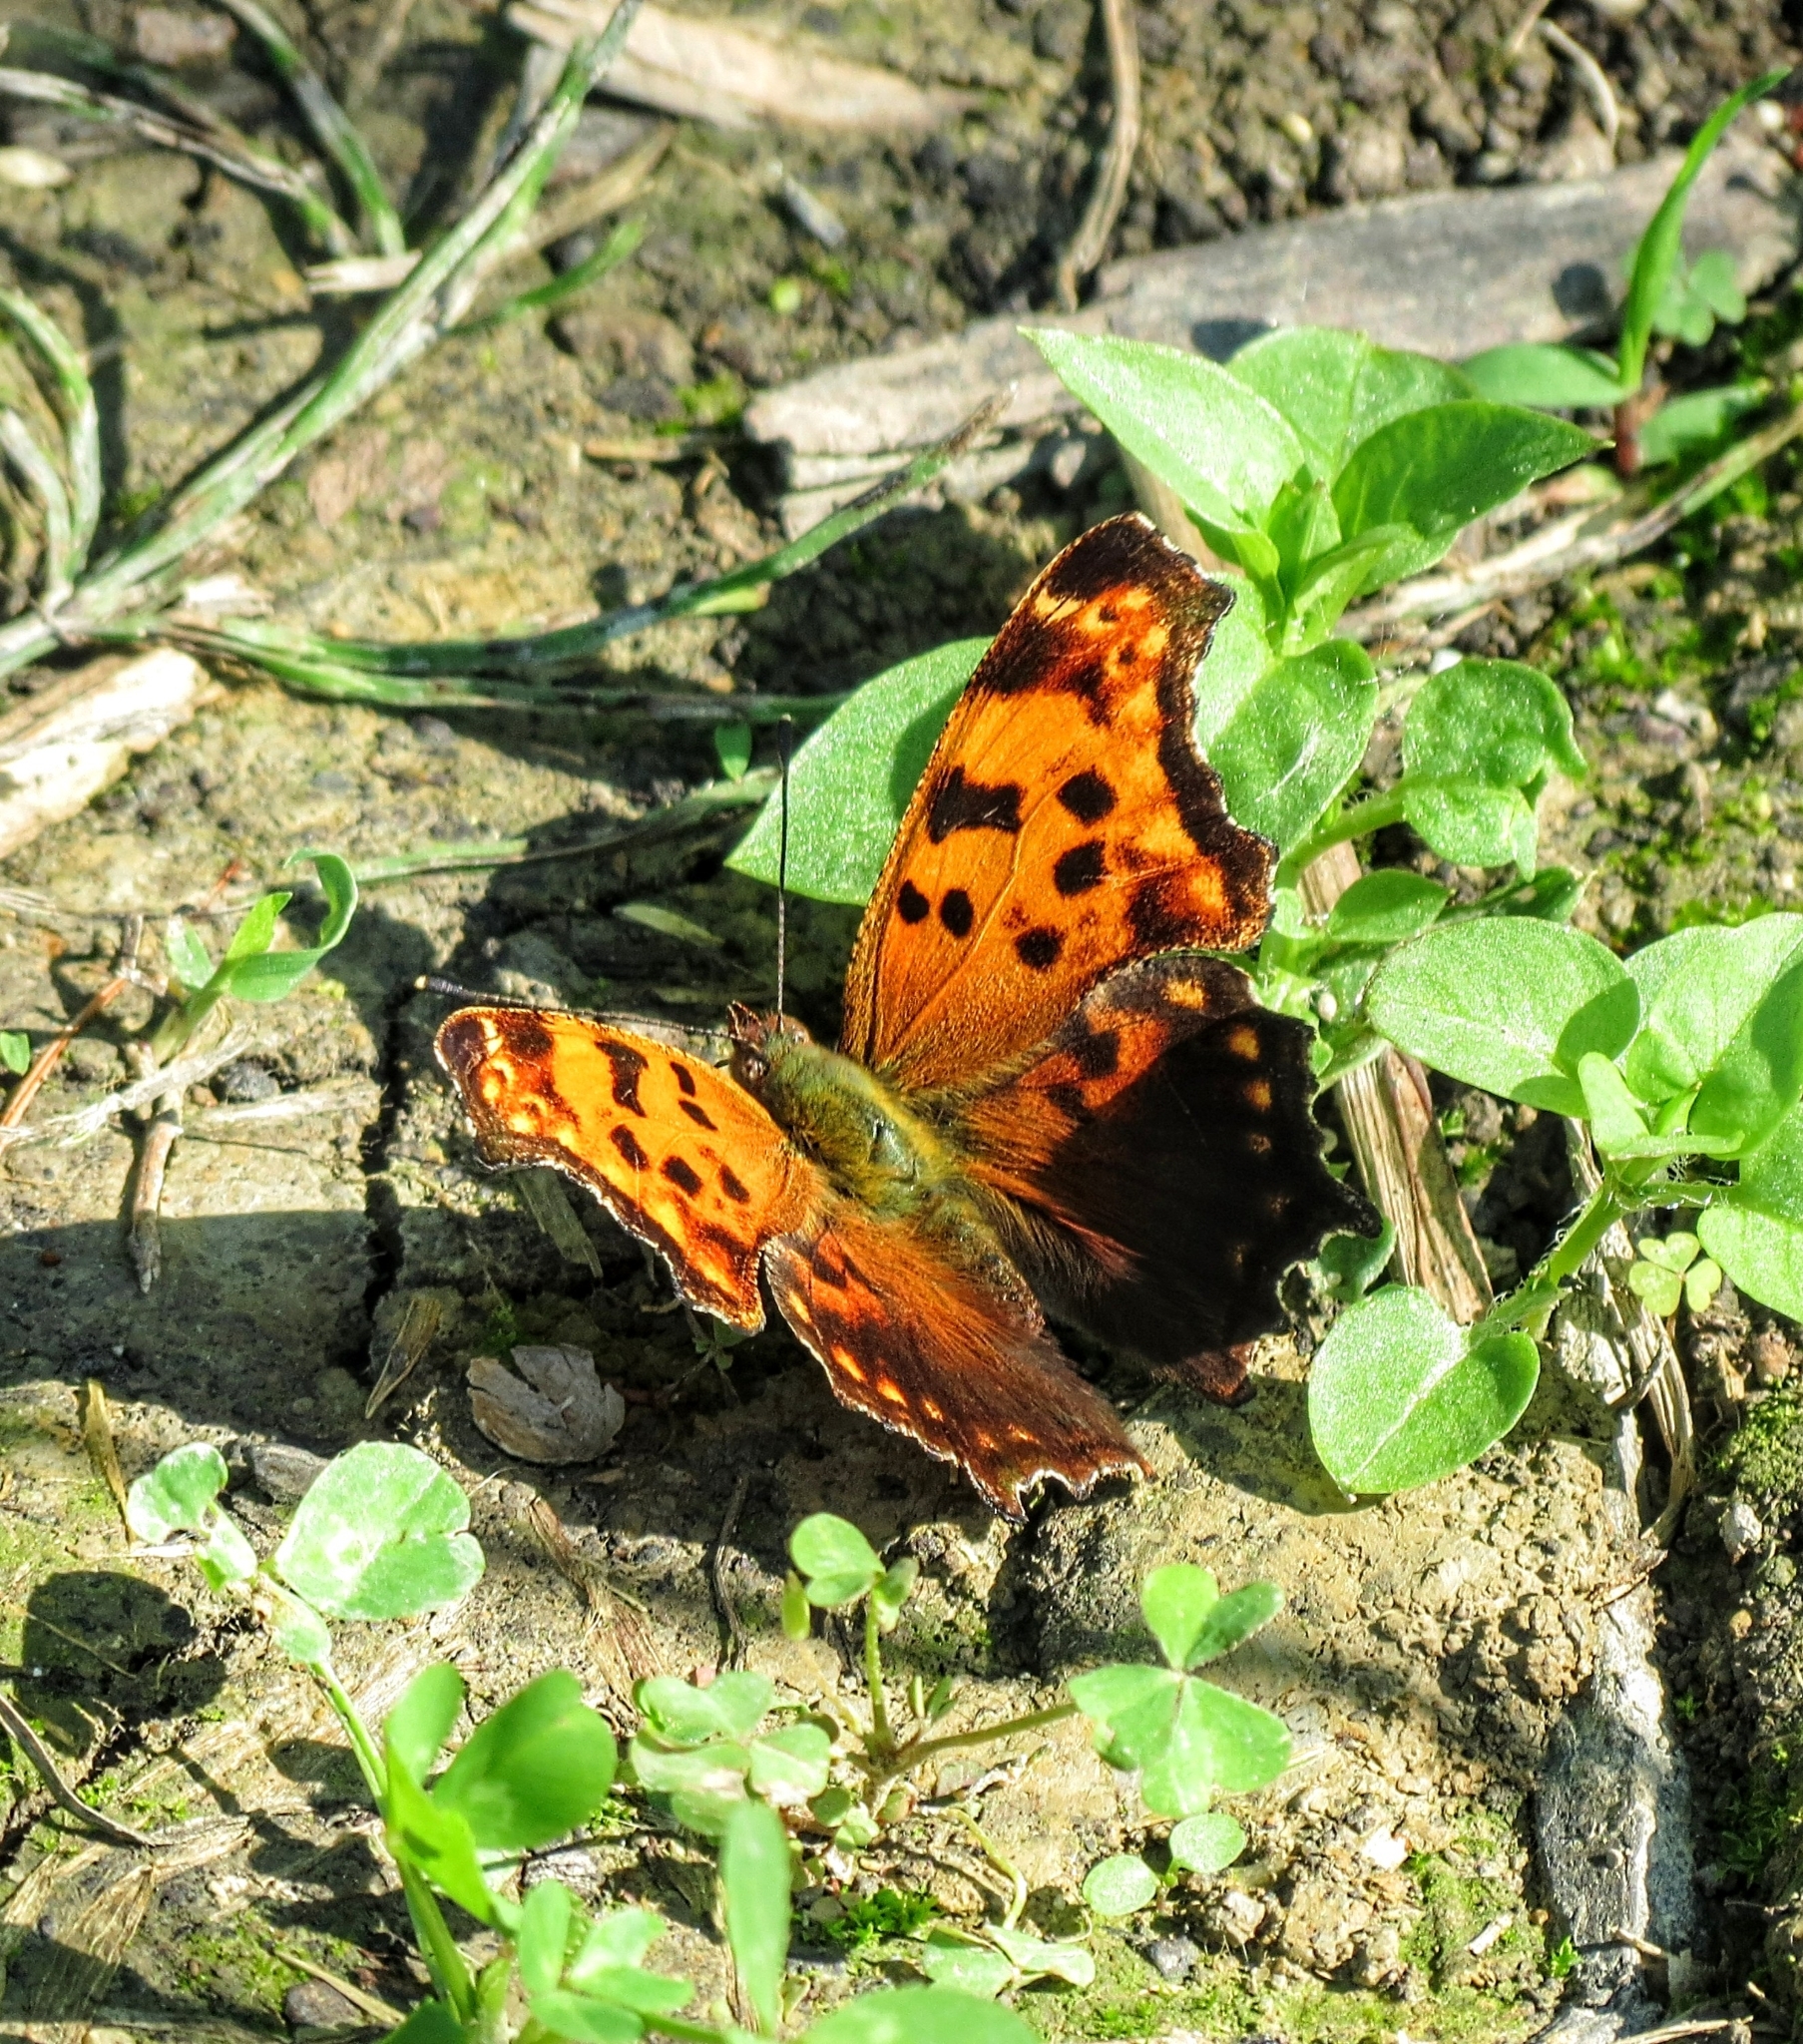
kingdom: Animalia
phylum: Arthropoda
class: Insecta
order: Lepidoptera
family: Nymphalidae
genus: Polygonia
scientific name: Polygonia comma
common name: Eastern comma
